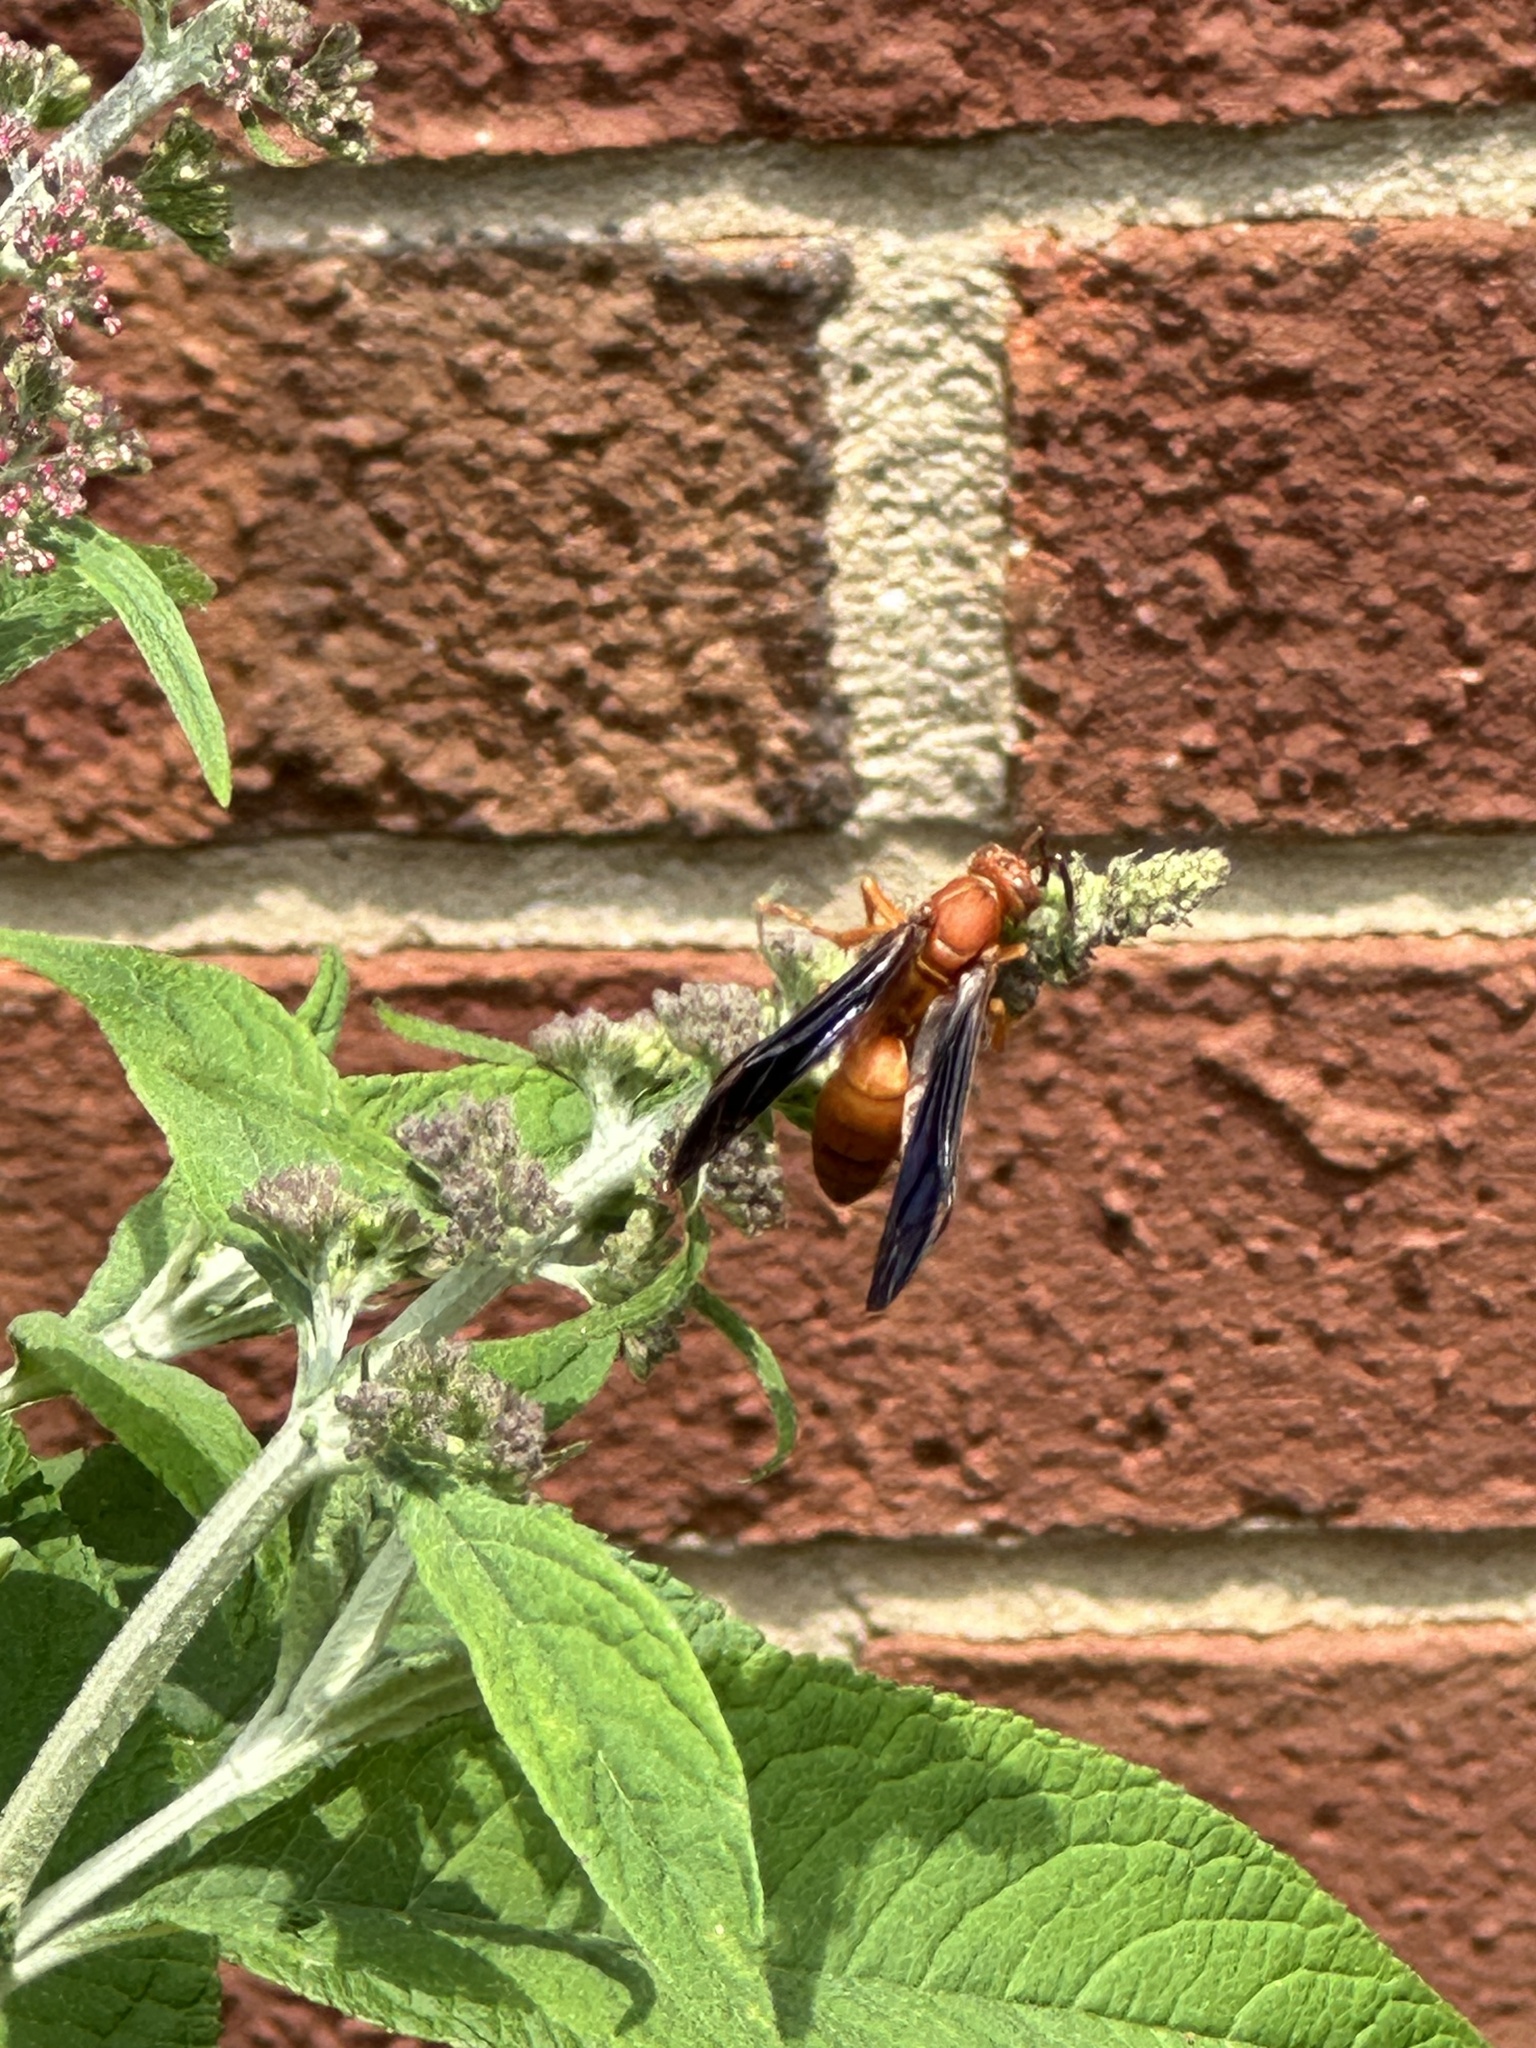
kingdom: Animalia
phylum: Arthropoda
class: Insecta
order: Hymenoptera
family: Vespidae
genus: Fuscopolistes
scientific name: Fuscopolistes
